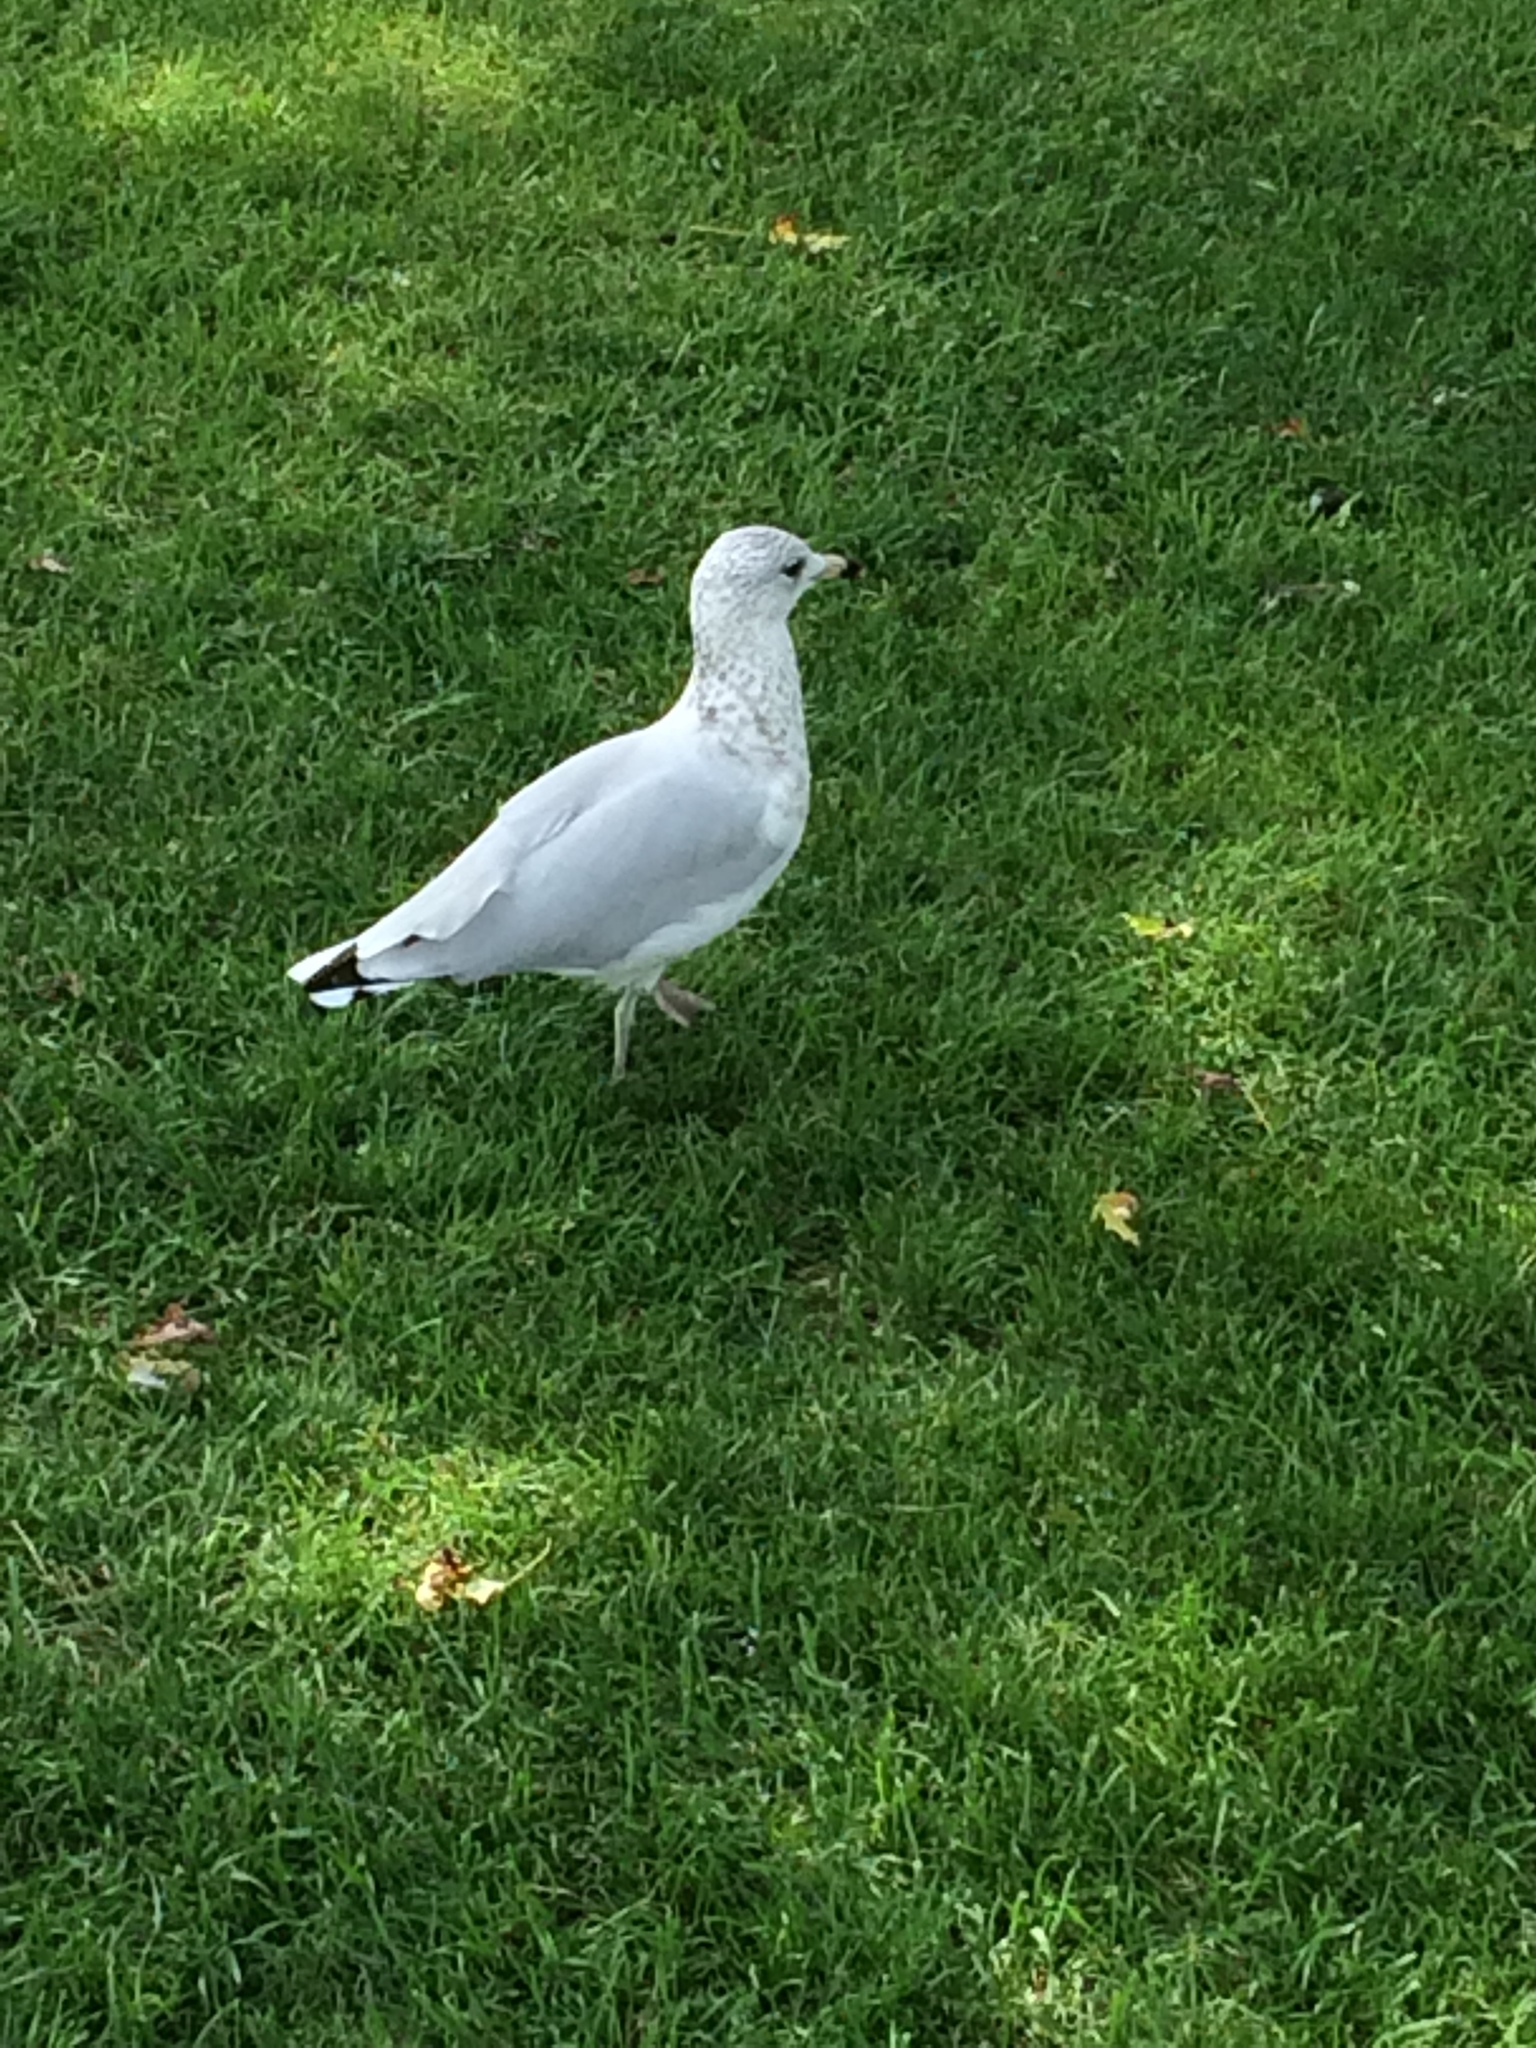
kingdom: Animalia
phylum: Chordata
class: Aves
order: Charadriiformes
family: Laridae
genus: Larus
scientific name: Larus delawarensis
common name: Ring-billed gull
